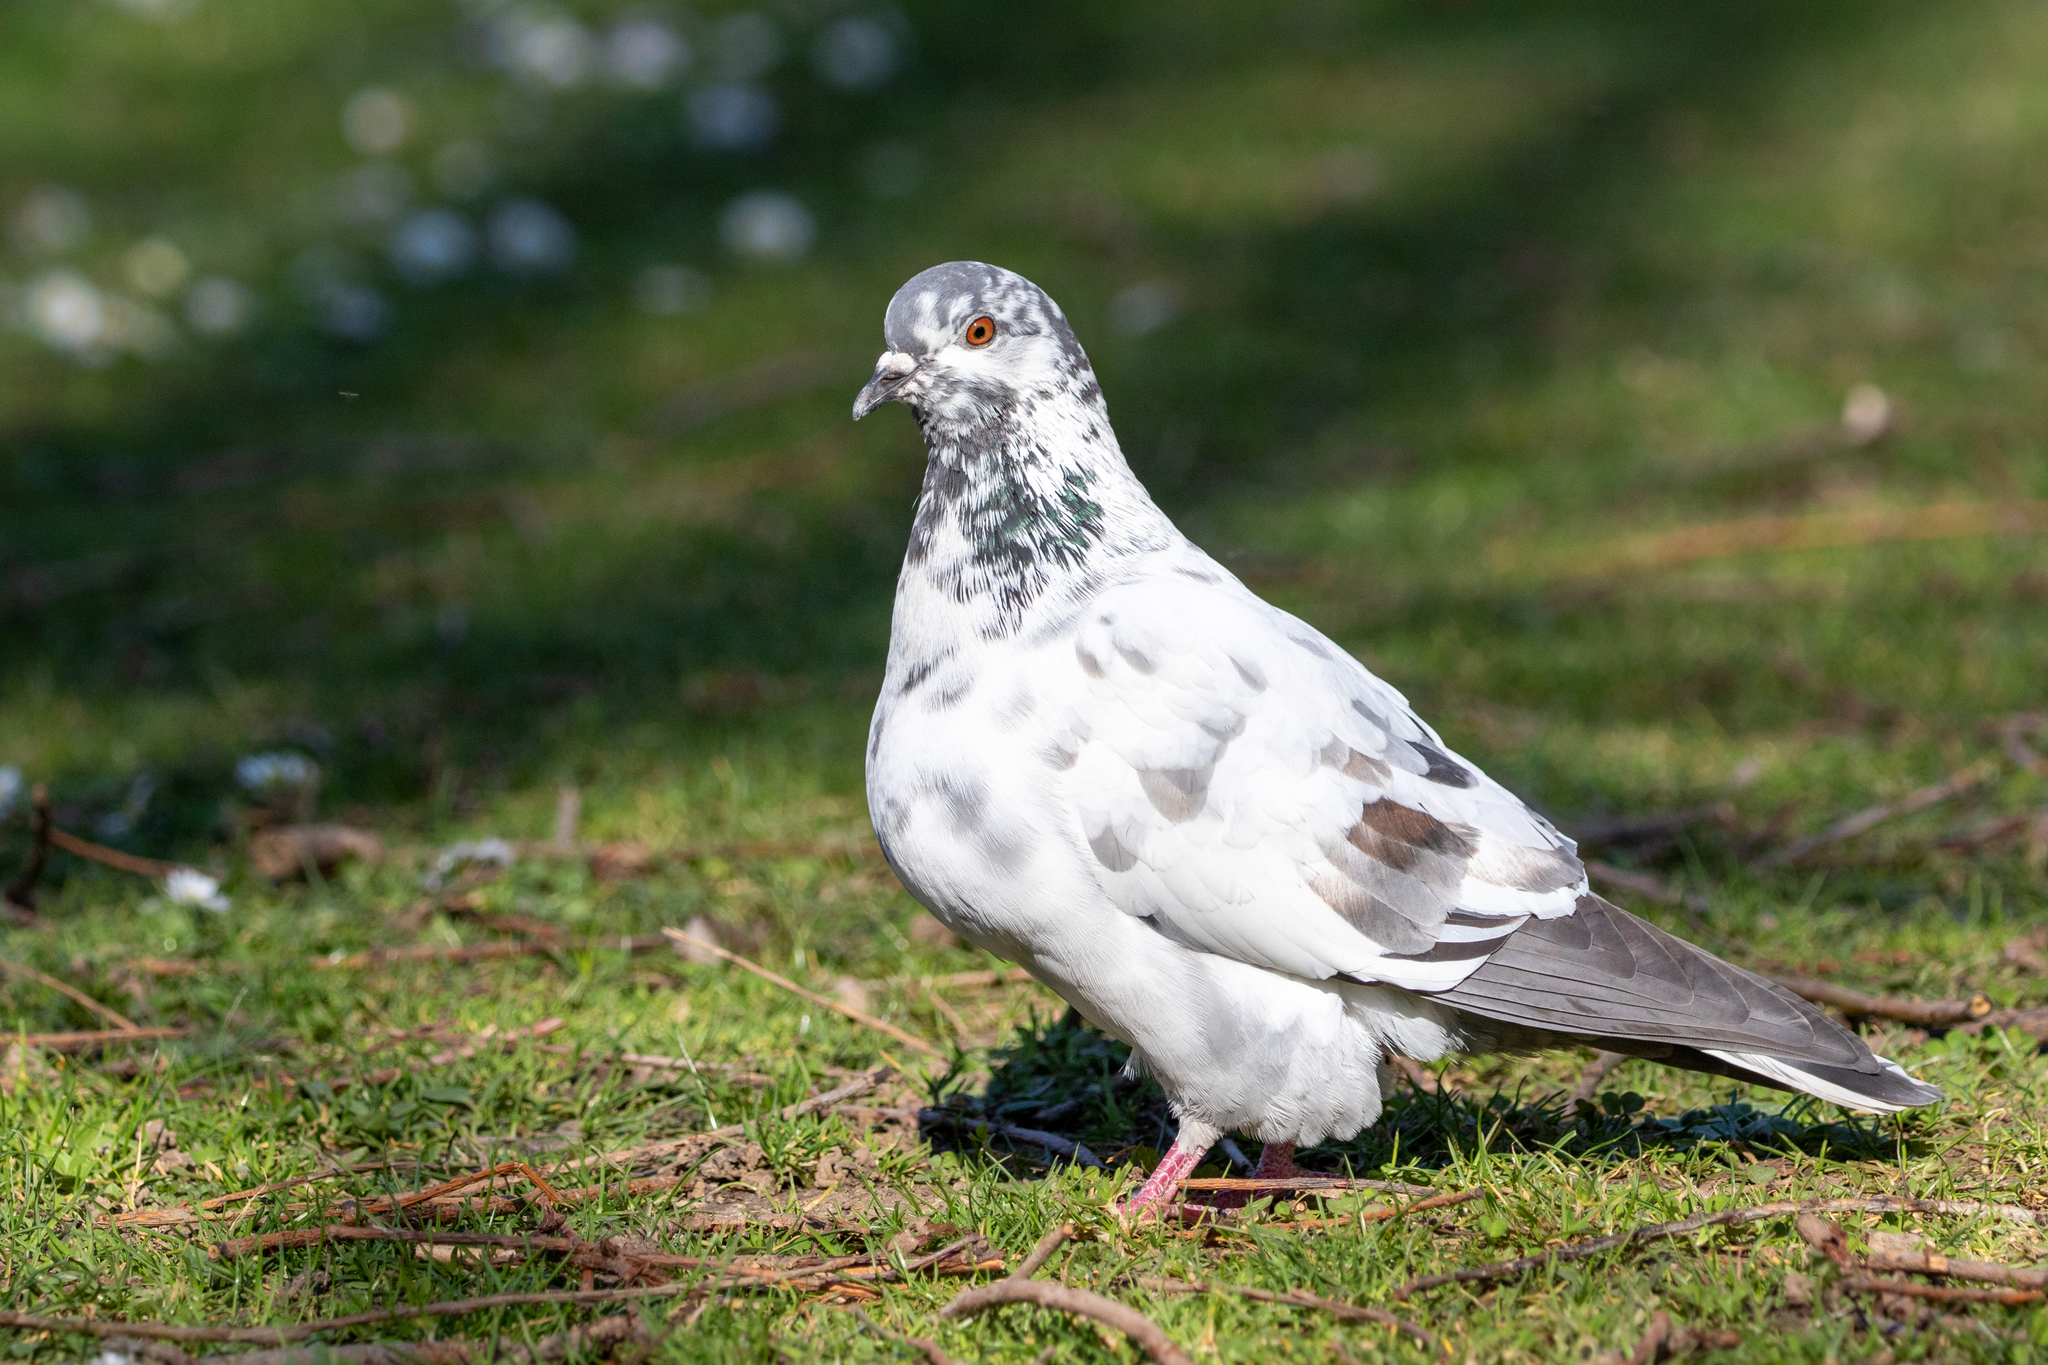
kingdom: Animalia
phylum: Chordata
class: Aves
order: Columbiformes
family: Columbidae
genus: Columba
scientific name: Columba livia
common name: Rock pigeon
